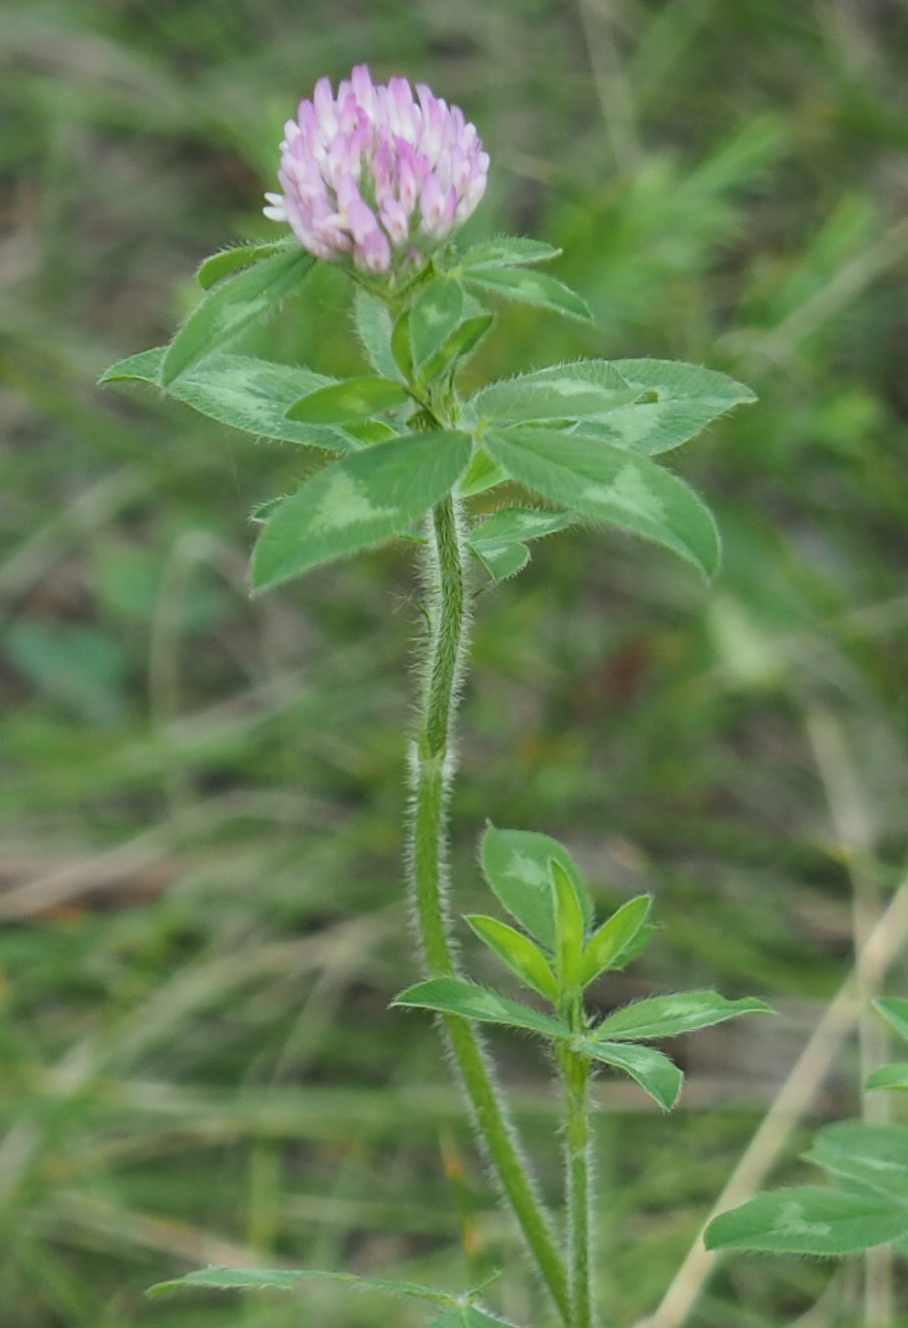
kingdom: Plantae
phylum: Tracheophyta
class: Magnoliopsida
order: Fabales
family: Fabaceae
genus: Trifolium
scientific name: Trifolium pratense
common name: Red clover
